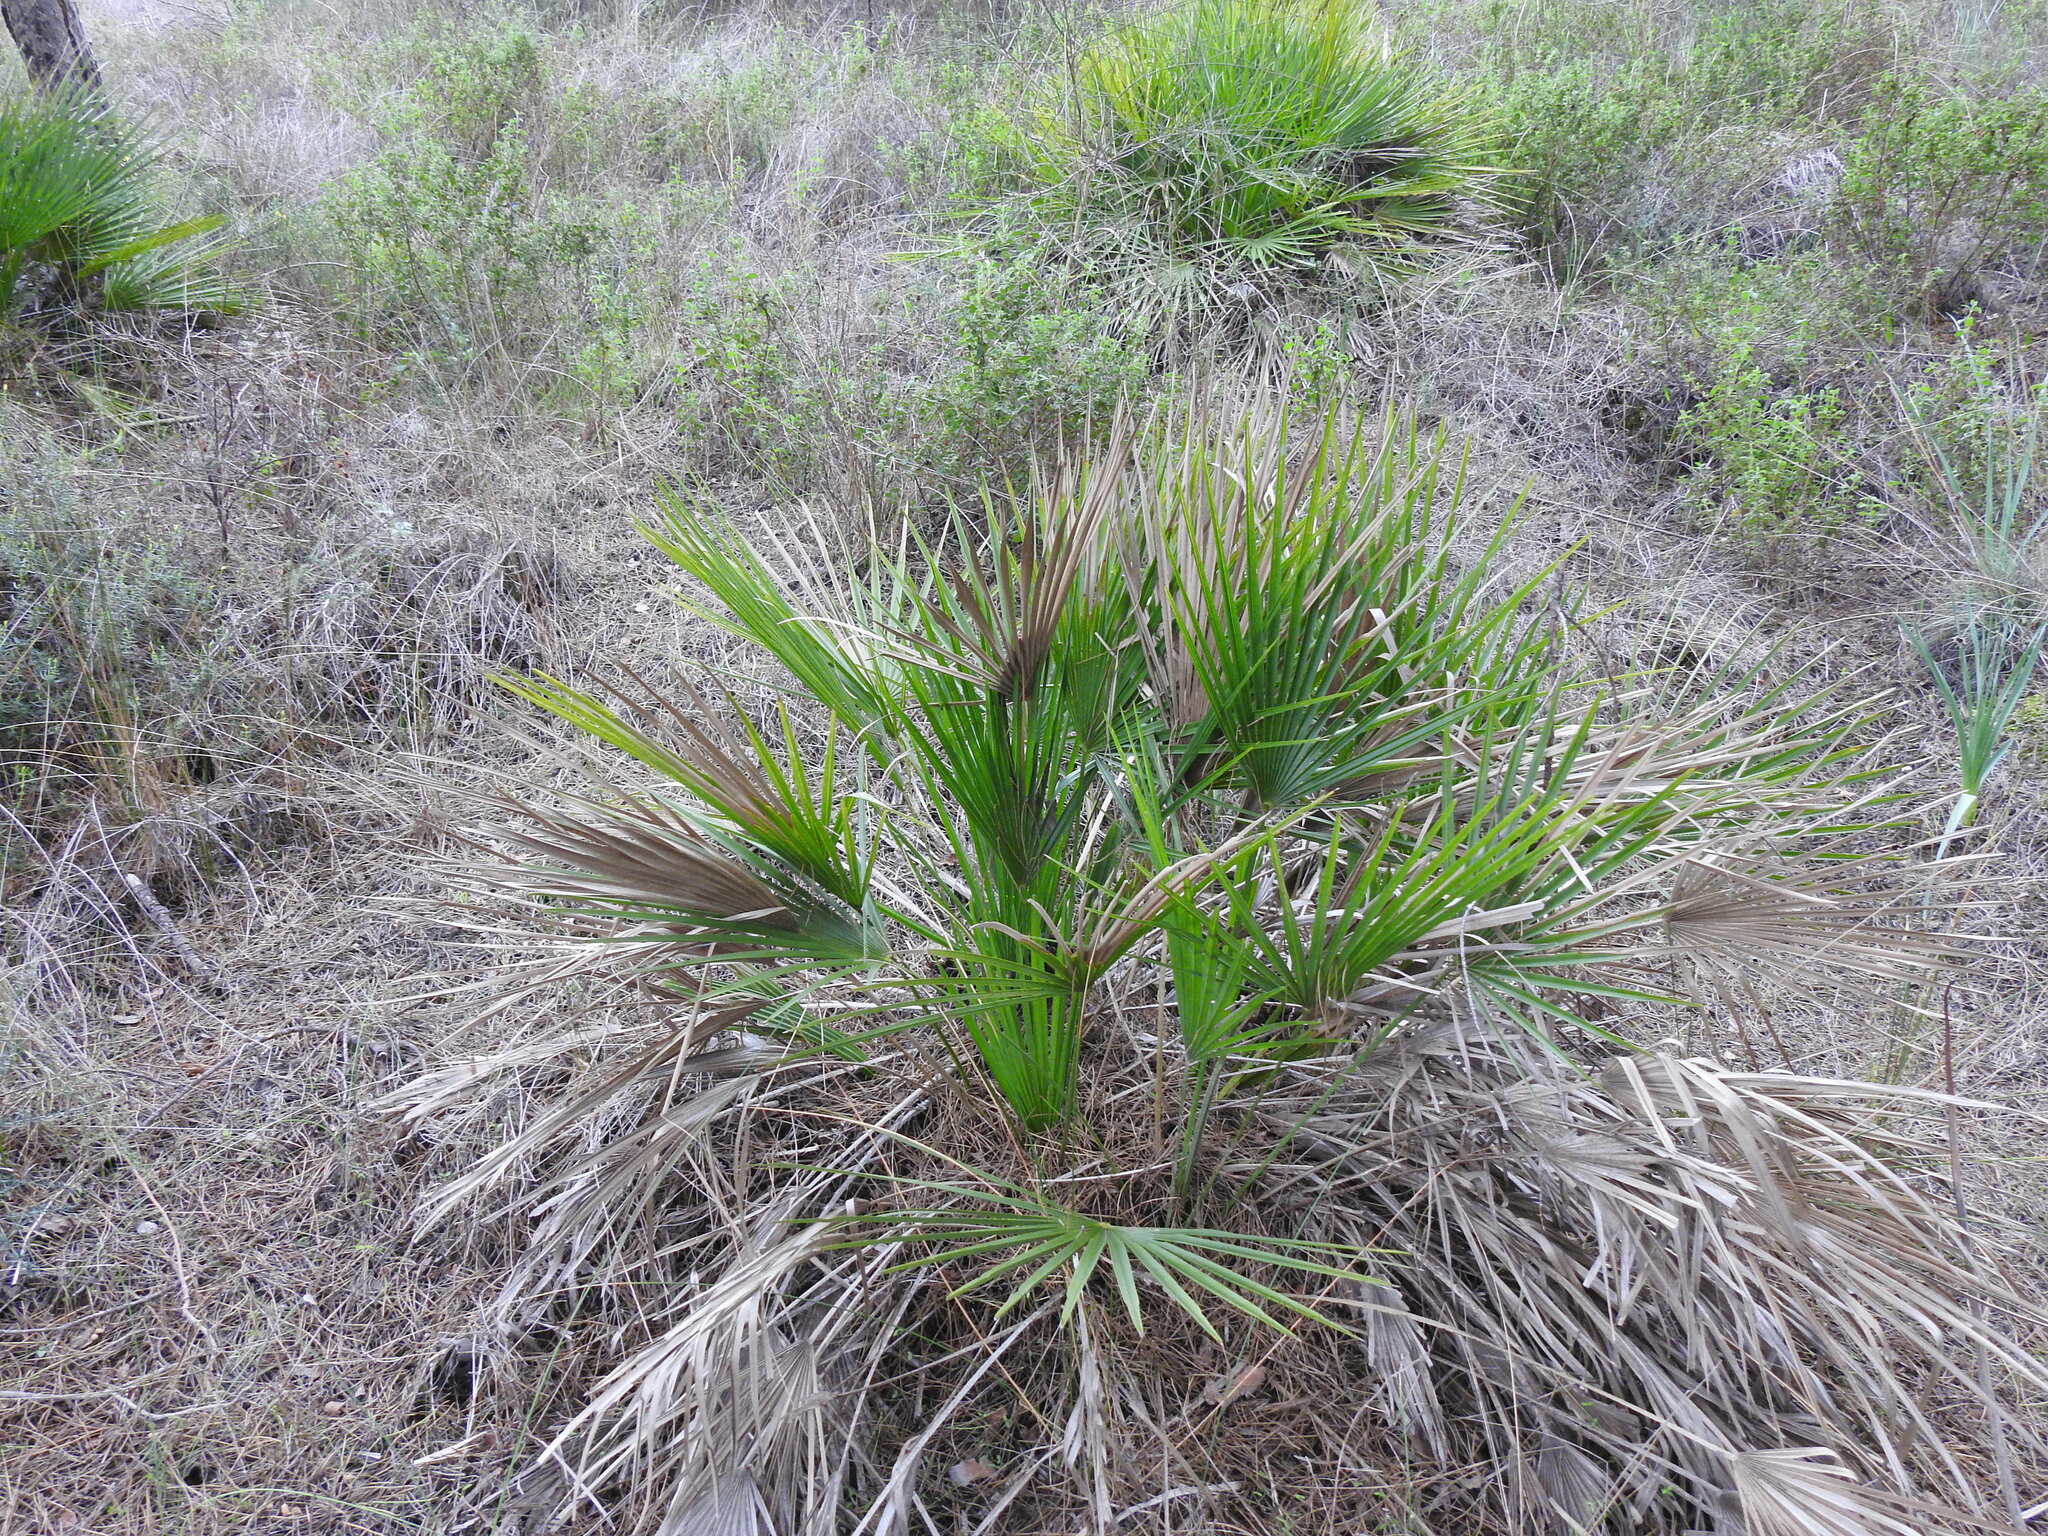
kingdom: Plantae
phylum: Tracheophyta
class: Liliopsida
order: Arecales
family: Arecaceae
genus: Chamaerops
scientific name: Chamaerops humilis
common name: Dwarf fan palm
